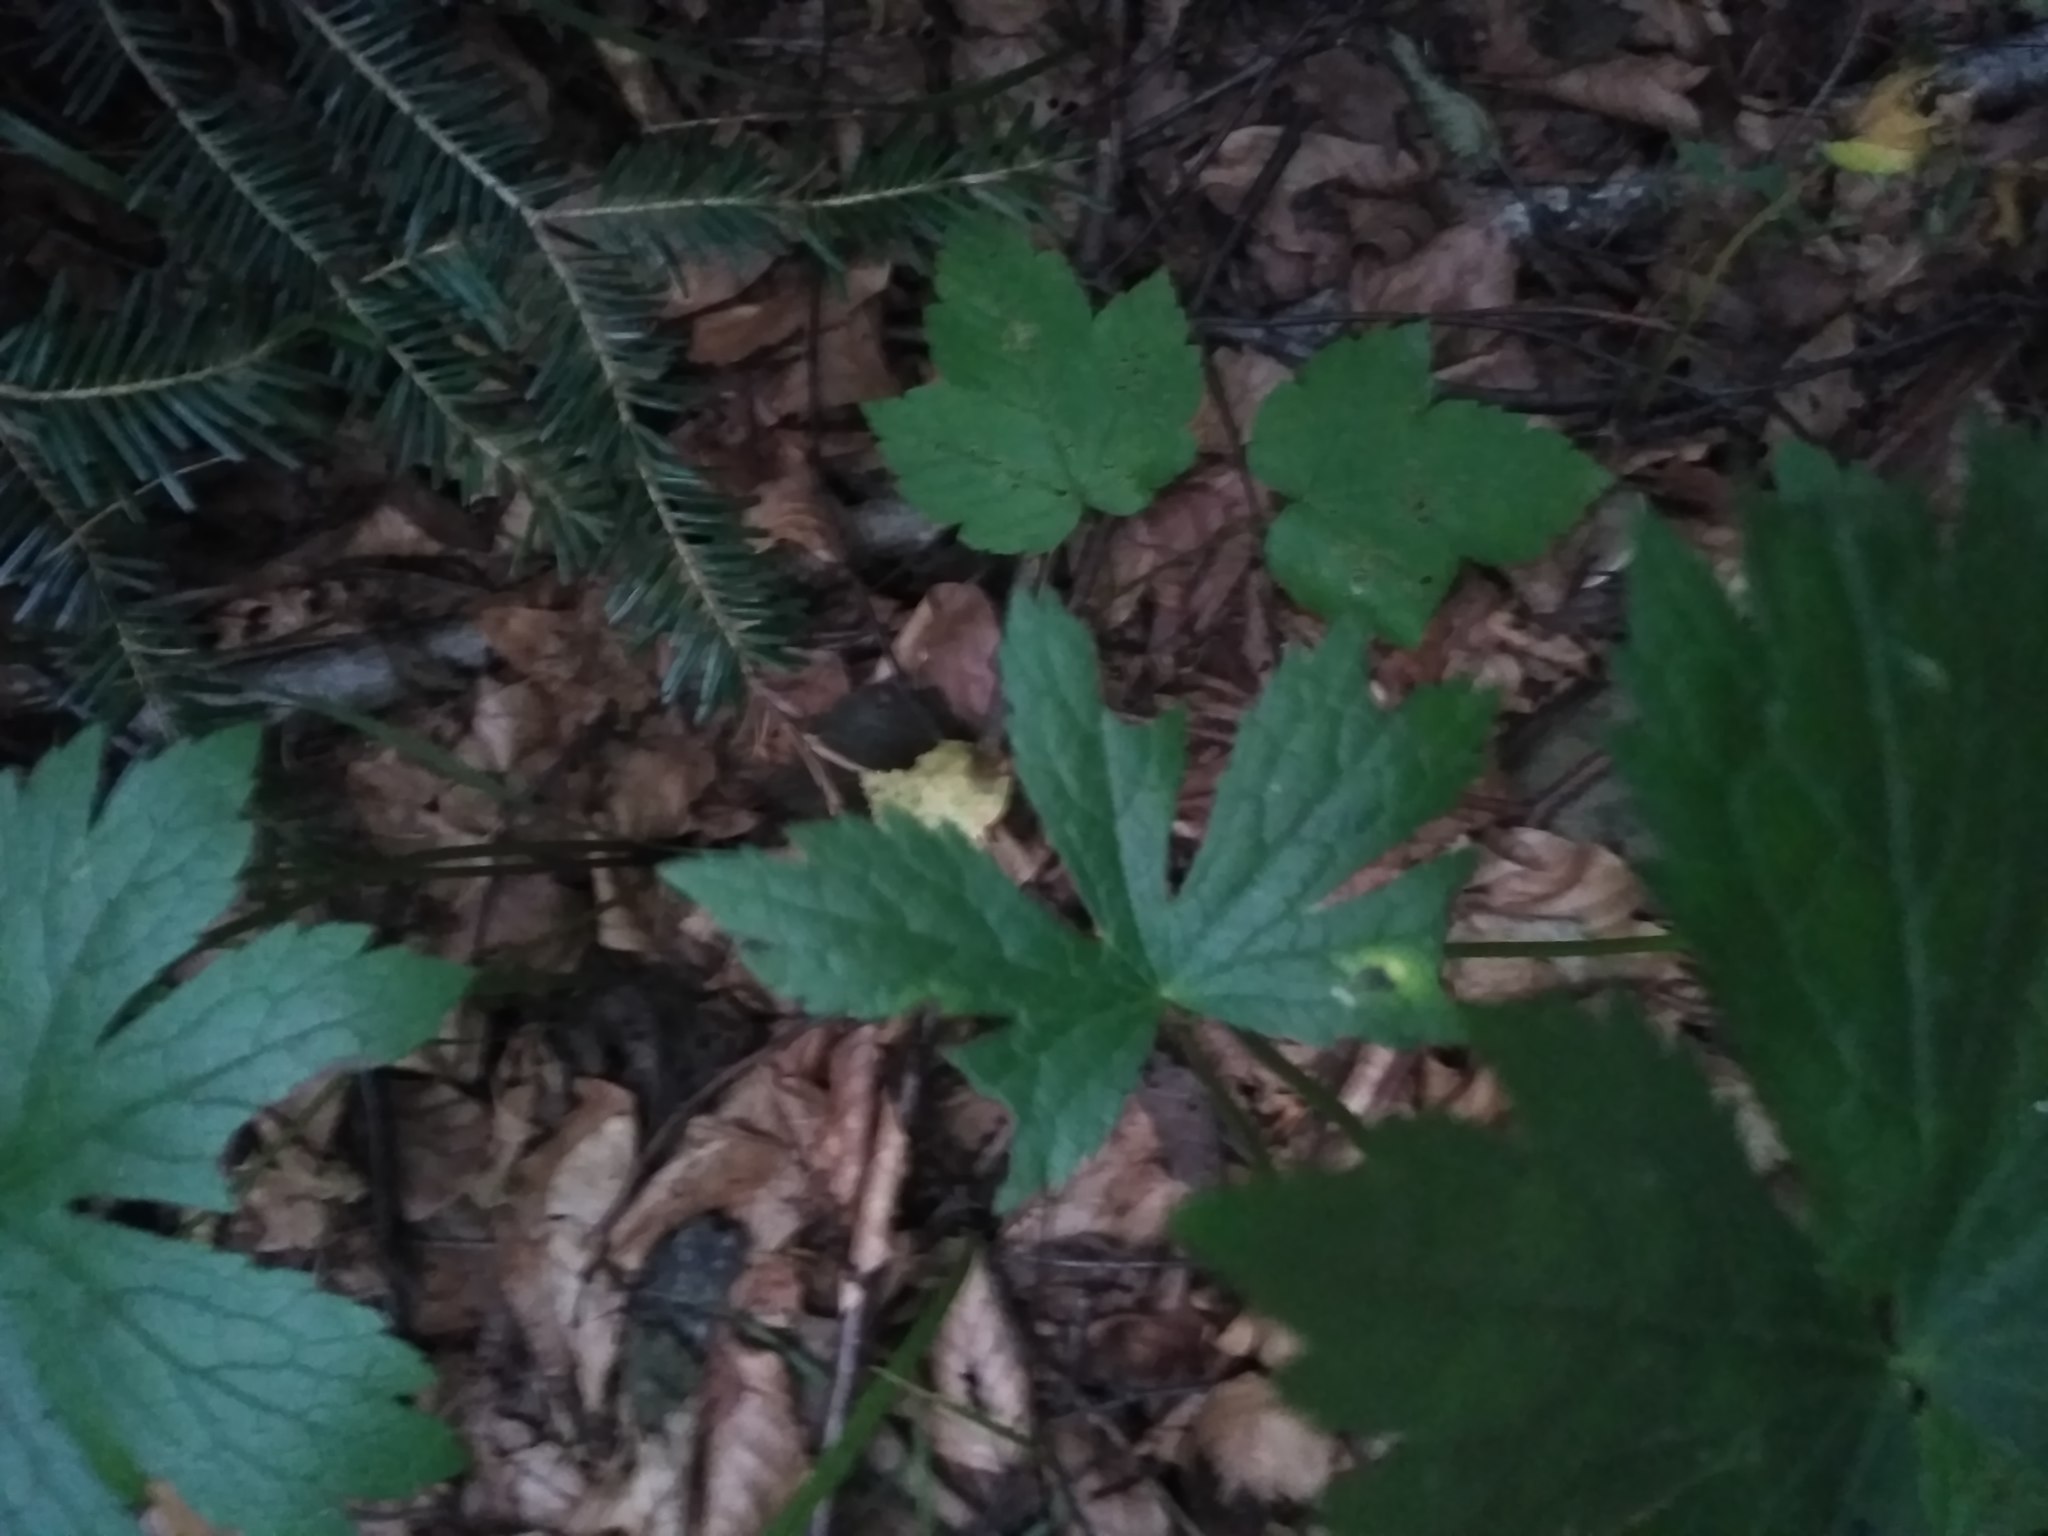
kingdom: Plantae
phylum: Tracheophyta
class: Magnoliopsida
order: Apiales
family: Apiaceae
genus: Astrantia
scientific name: Astrantia major
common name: Greater masterwort
